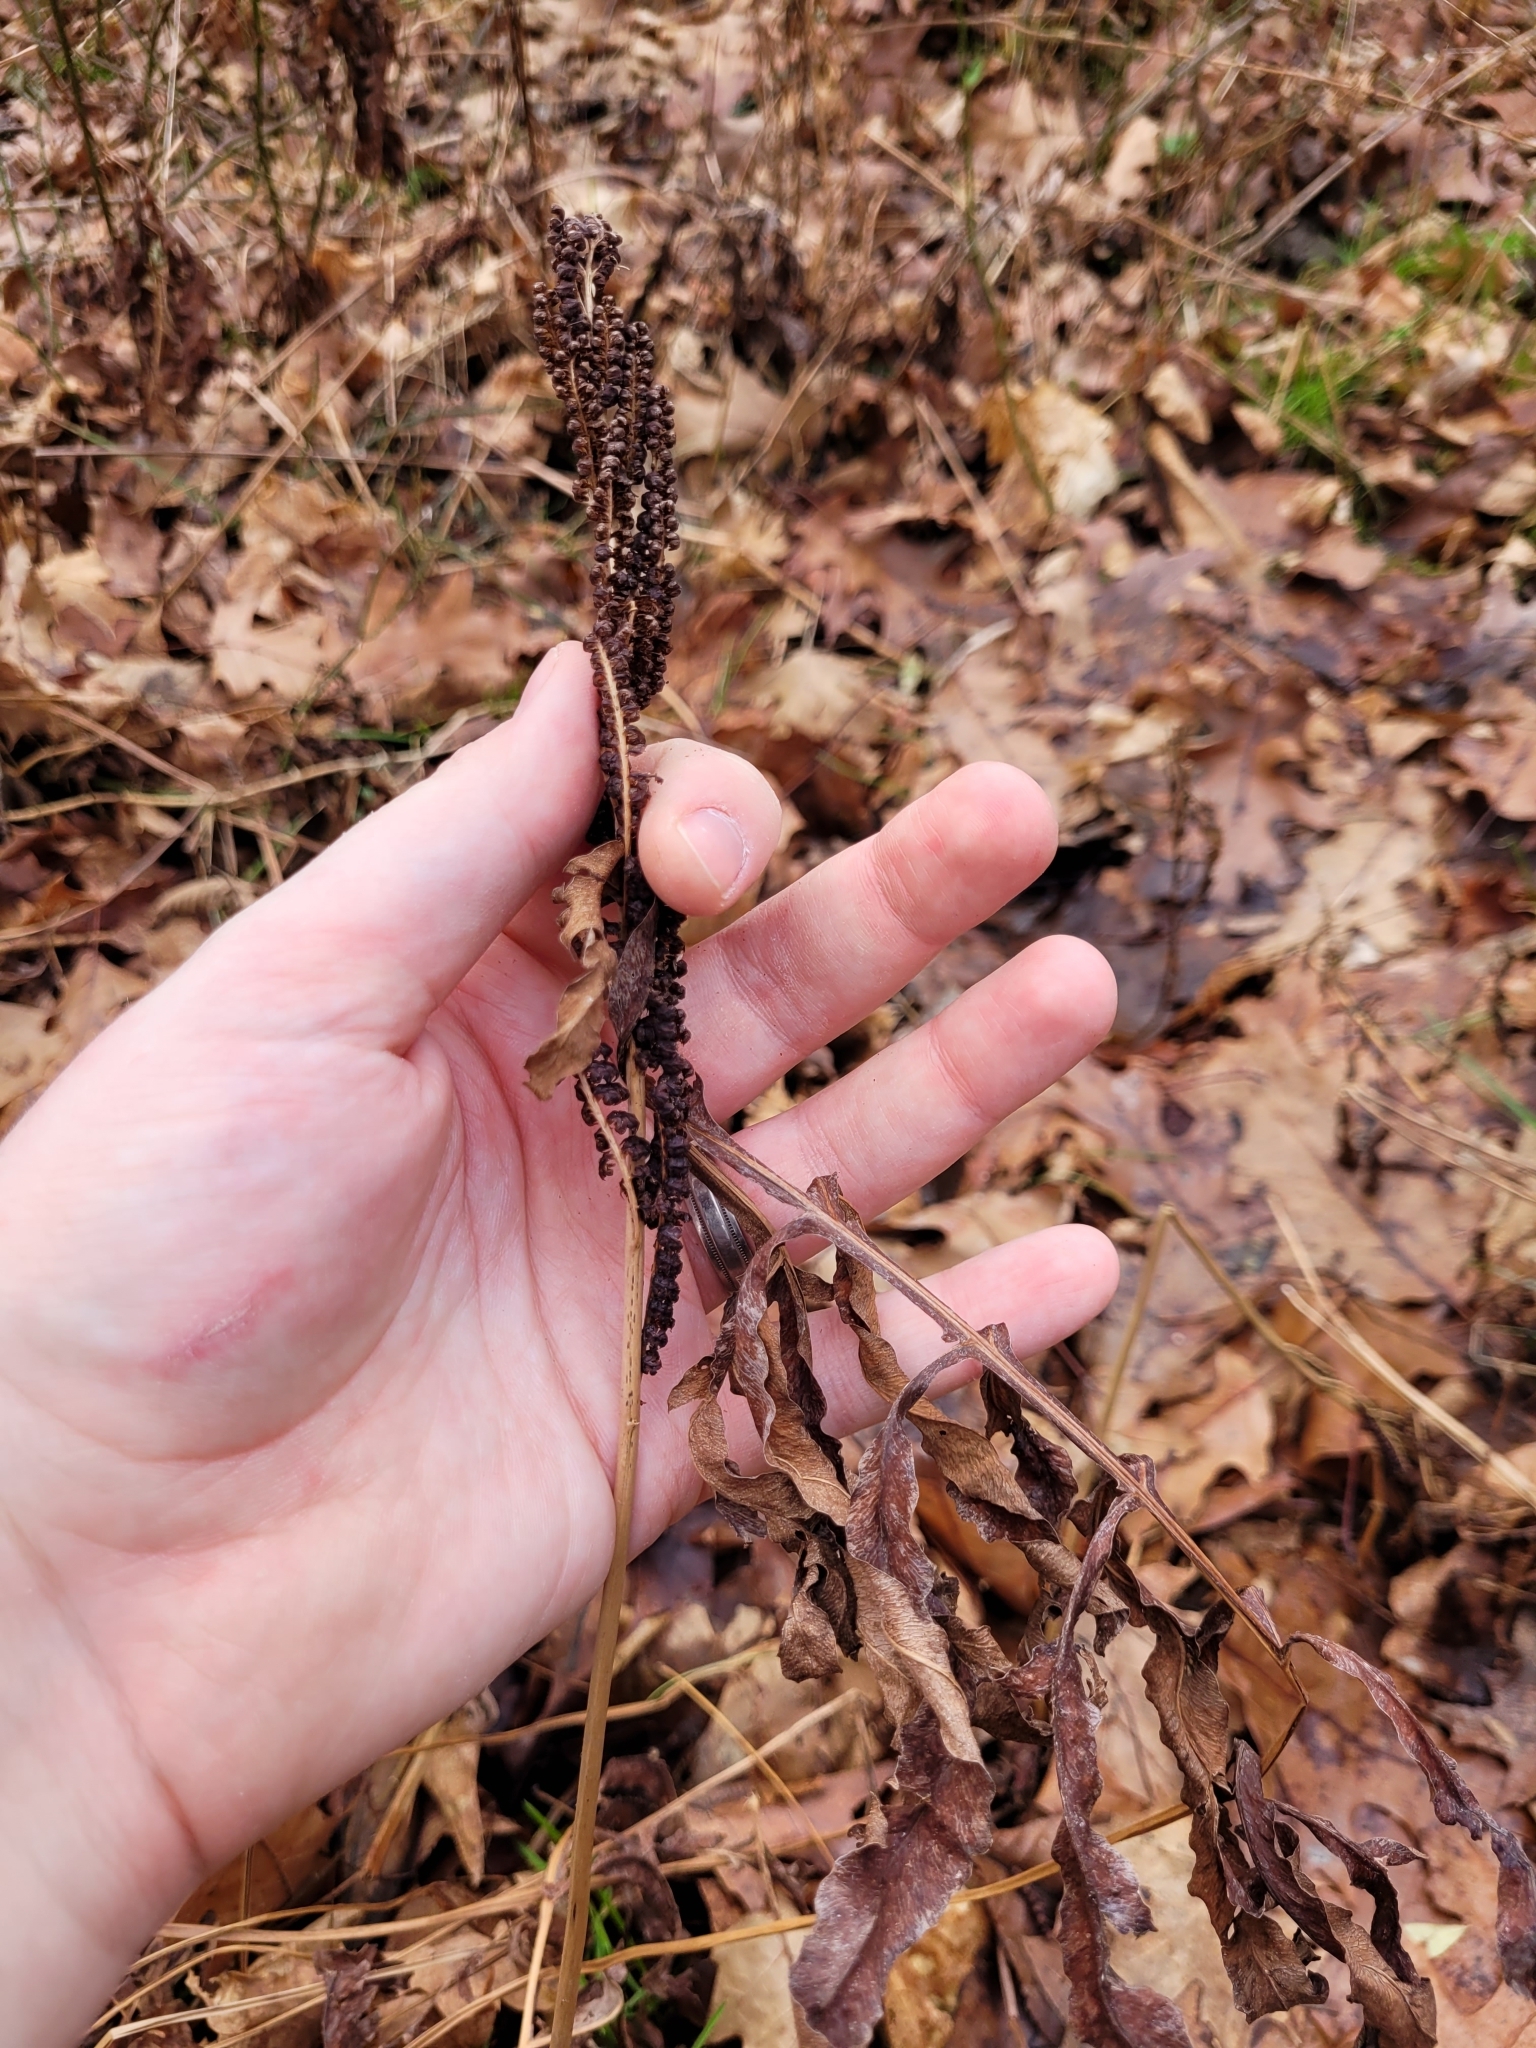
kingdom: Plantae
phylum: Tracheophyta
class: Polypodiopsida
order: Polypodiales
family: Onocleaceae
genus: Onoclea
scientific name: Onoclea sensibilis
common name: Sensitive fern
